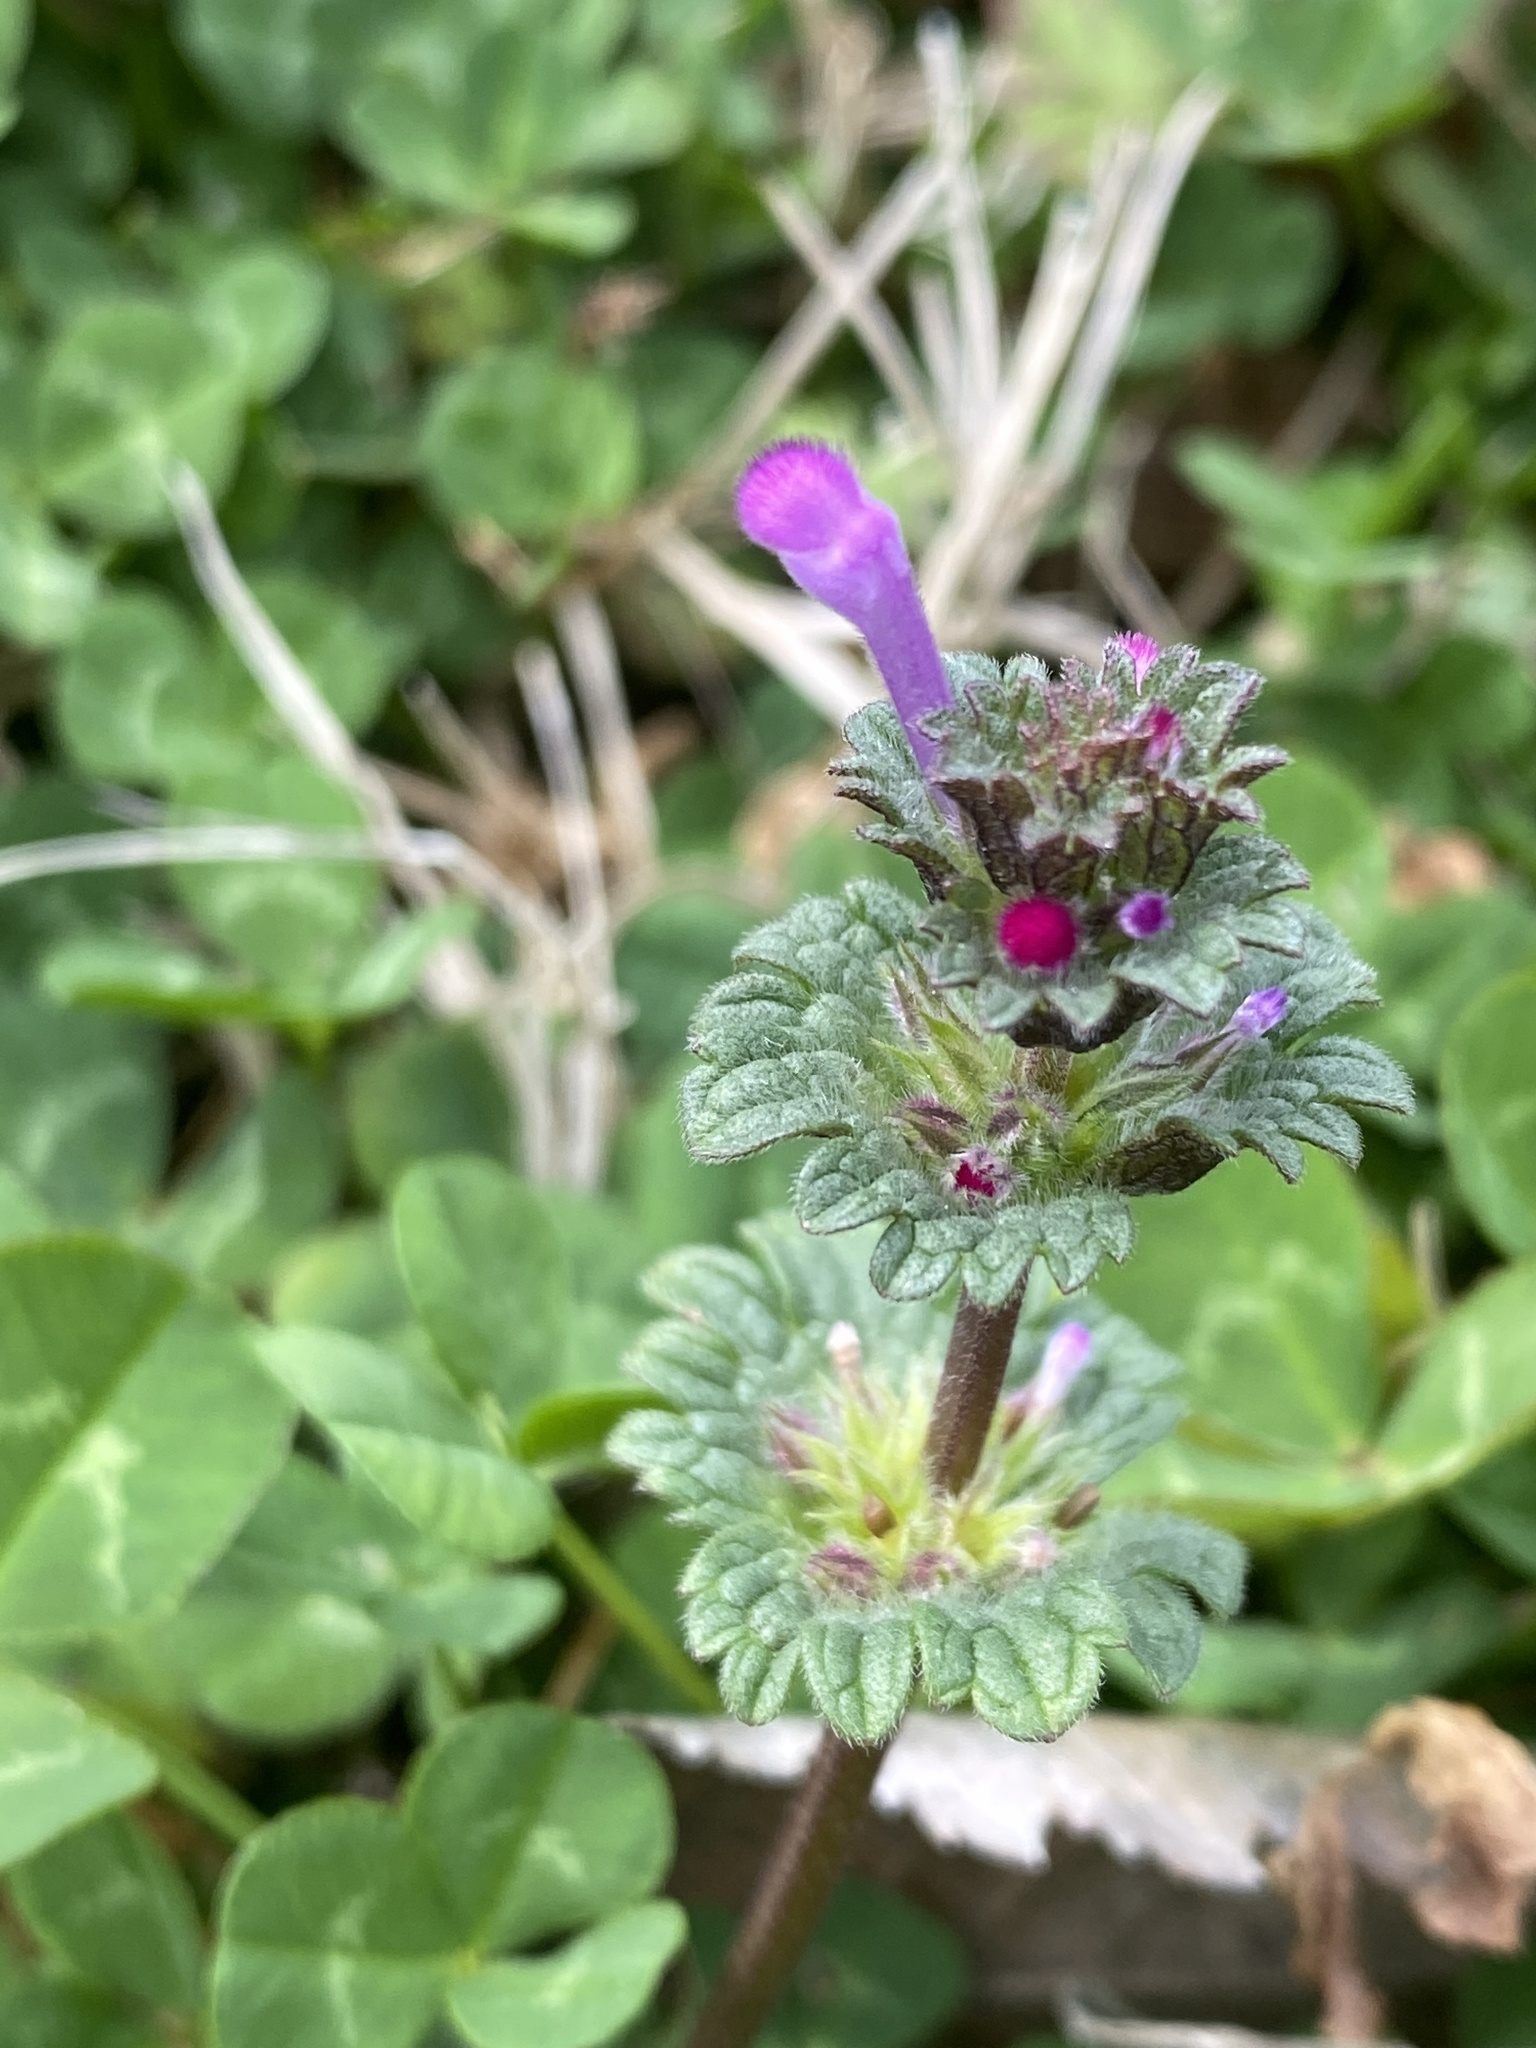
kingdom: Plantae
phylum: Tracheophyta
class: Magnoliopsida
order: Lamiales
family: Lamiaceae
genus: Lamium
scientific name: Lamium amplexicaule
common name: Henbit dead-nettle
